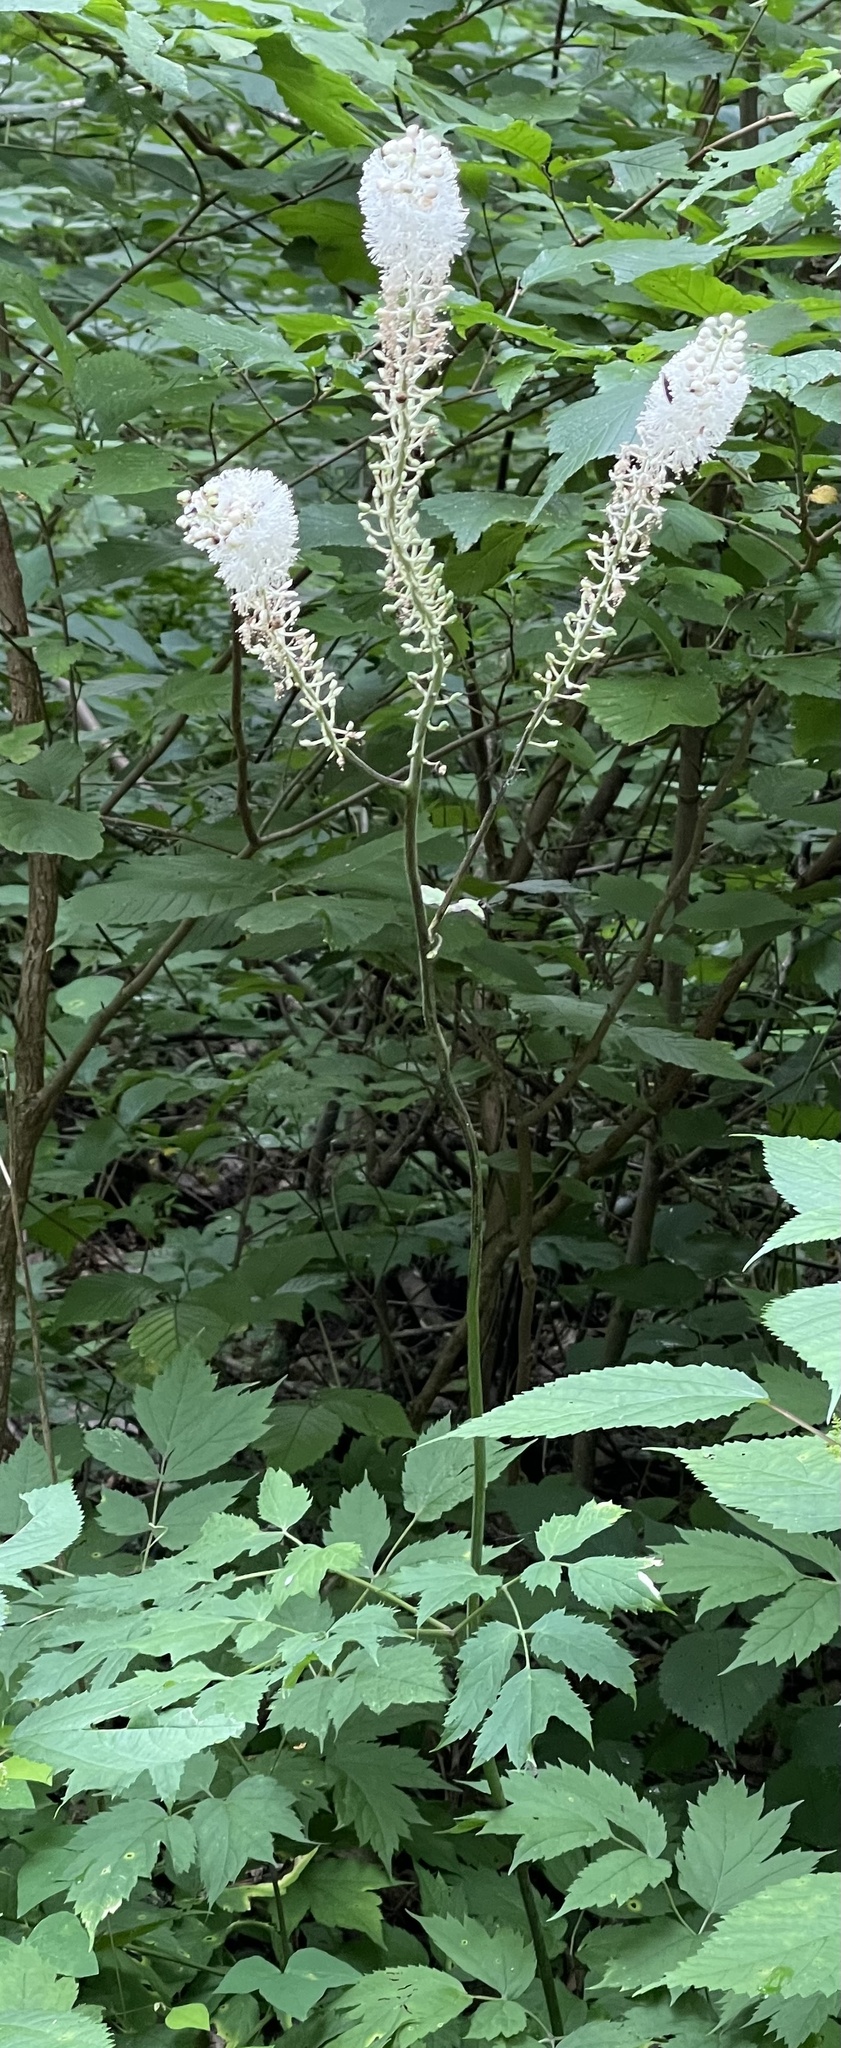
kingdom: Plantae
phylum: Tracheophyta
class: Magnoliopsida
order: Ranunculales
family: Ranunculaceae
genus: Actaea
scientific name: Actaea racemosa
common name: Black cohosh
